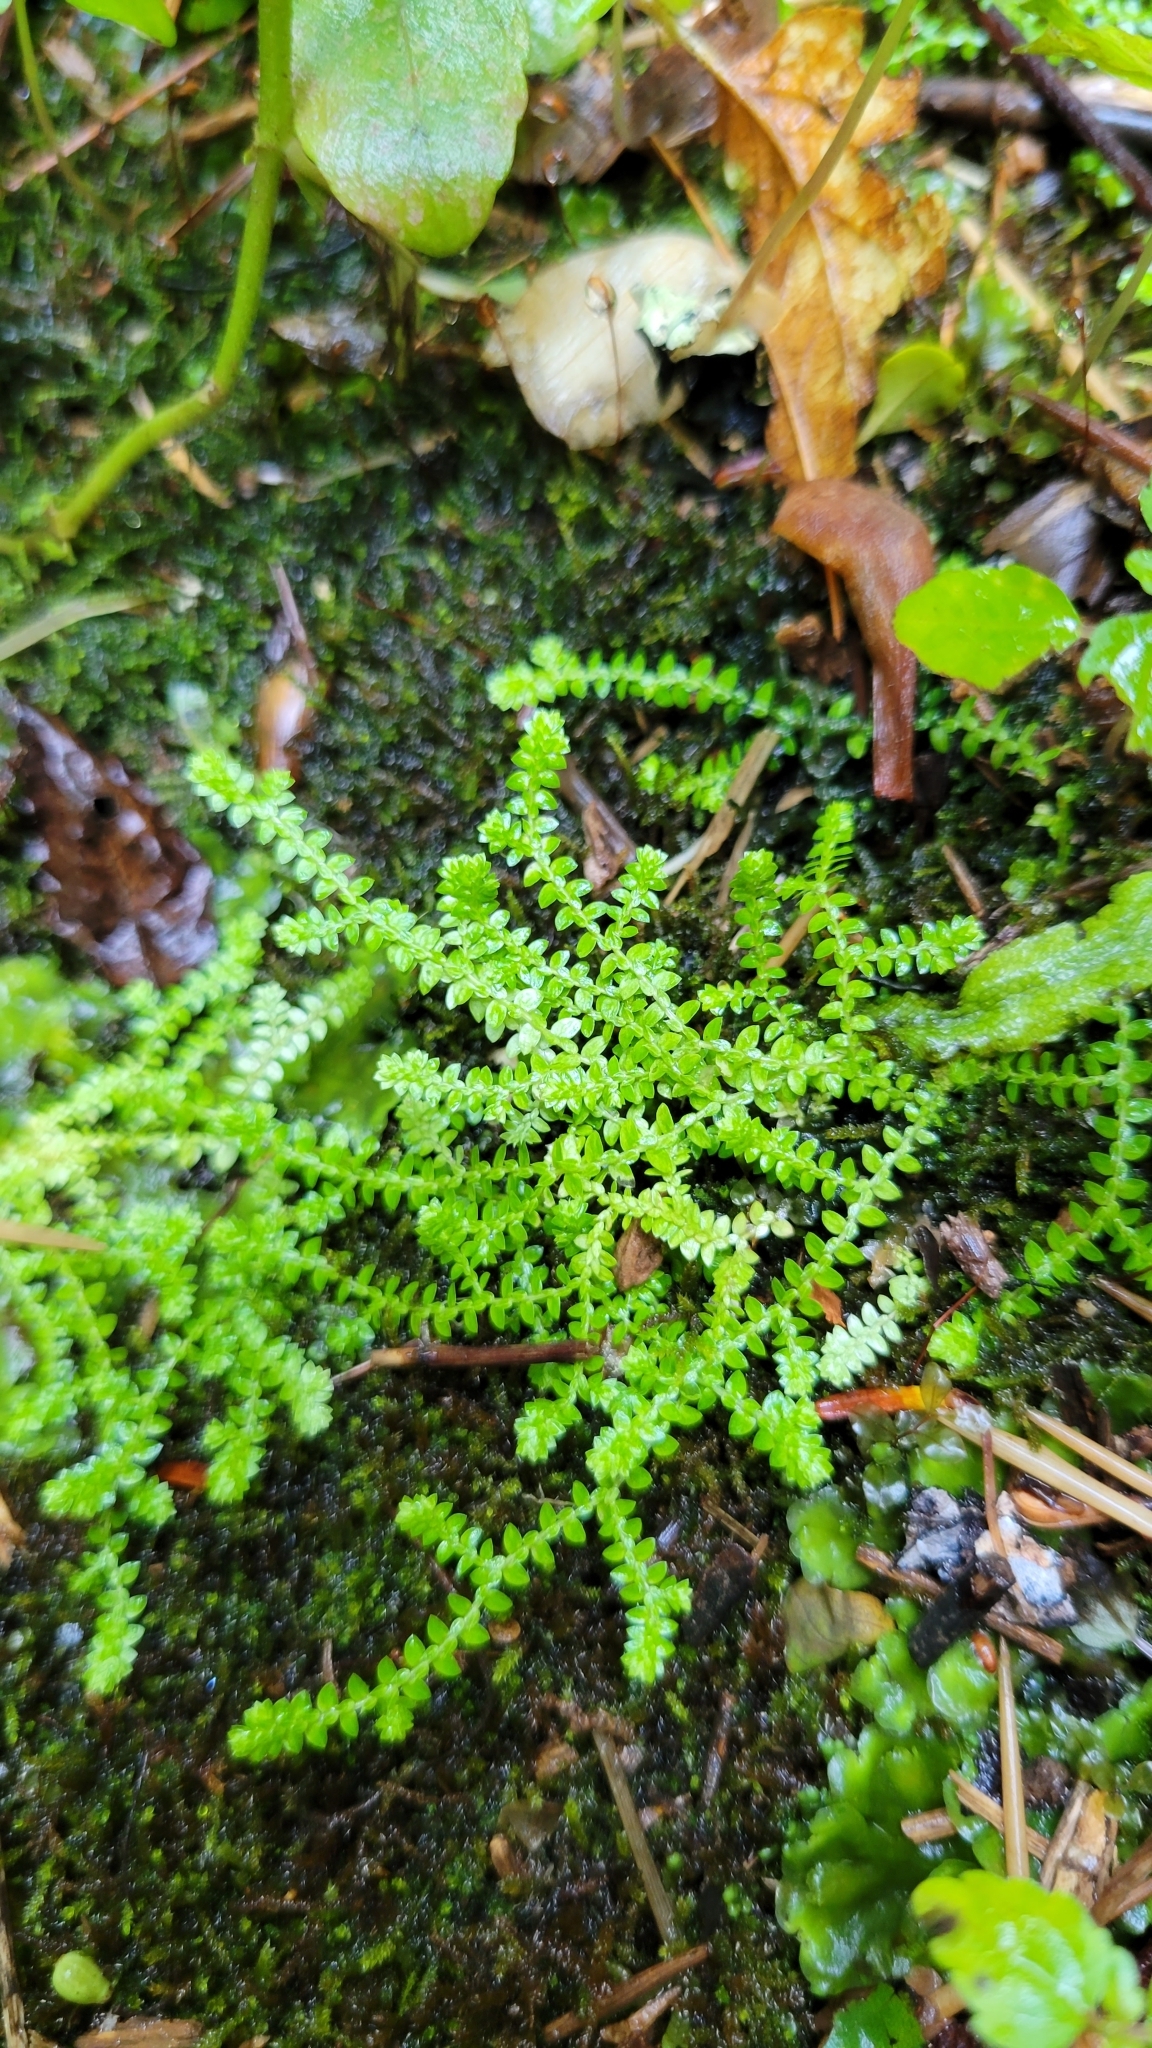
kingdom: Plantae
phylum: Tracheophyta
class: Lycopodiopsida
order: Selaginellales
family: Selaginellaceae
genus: Selaginella
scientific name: Selaginella apoda
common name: Creeping spikemoss
